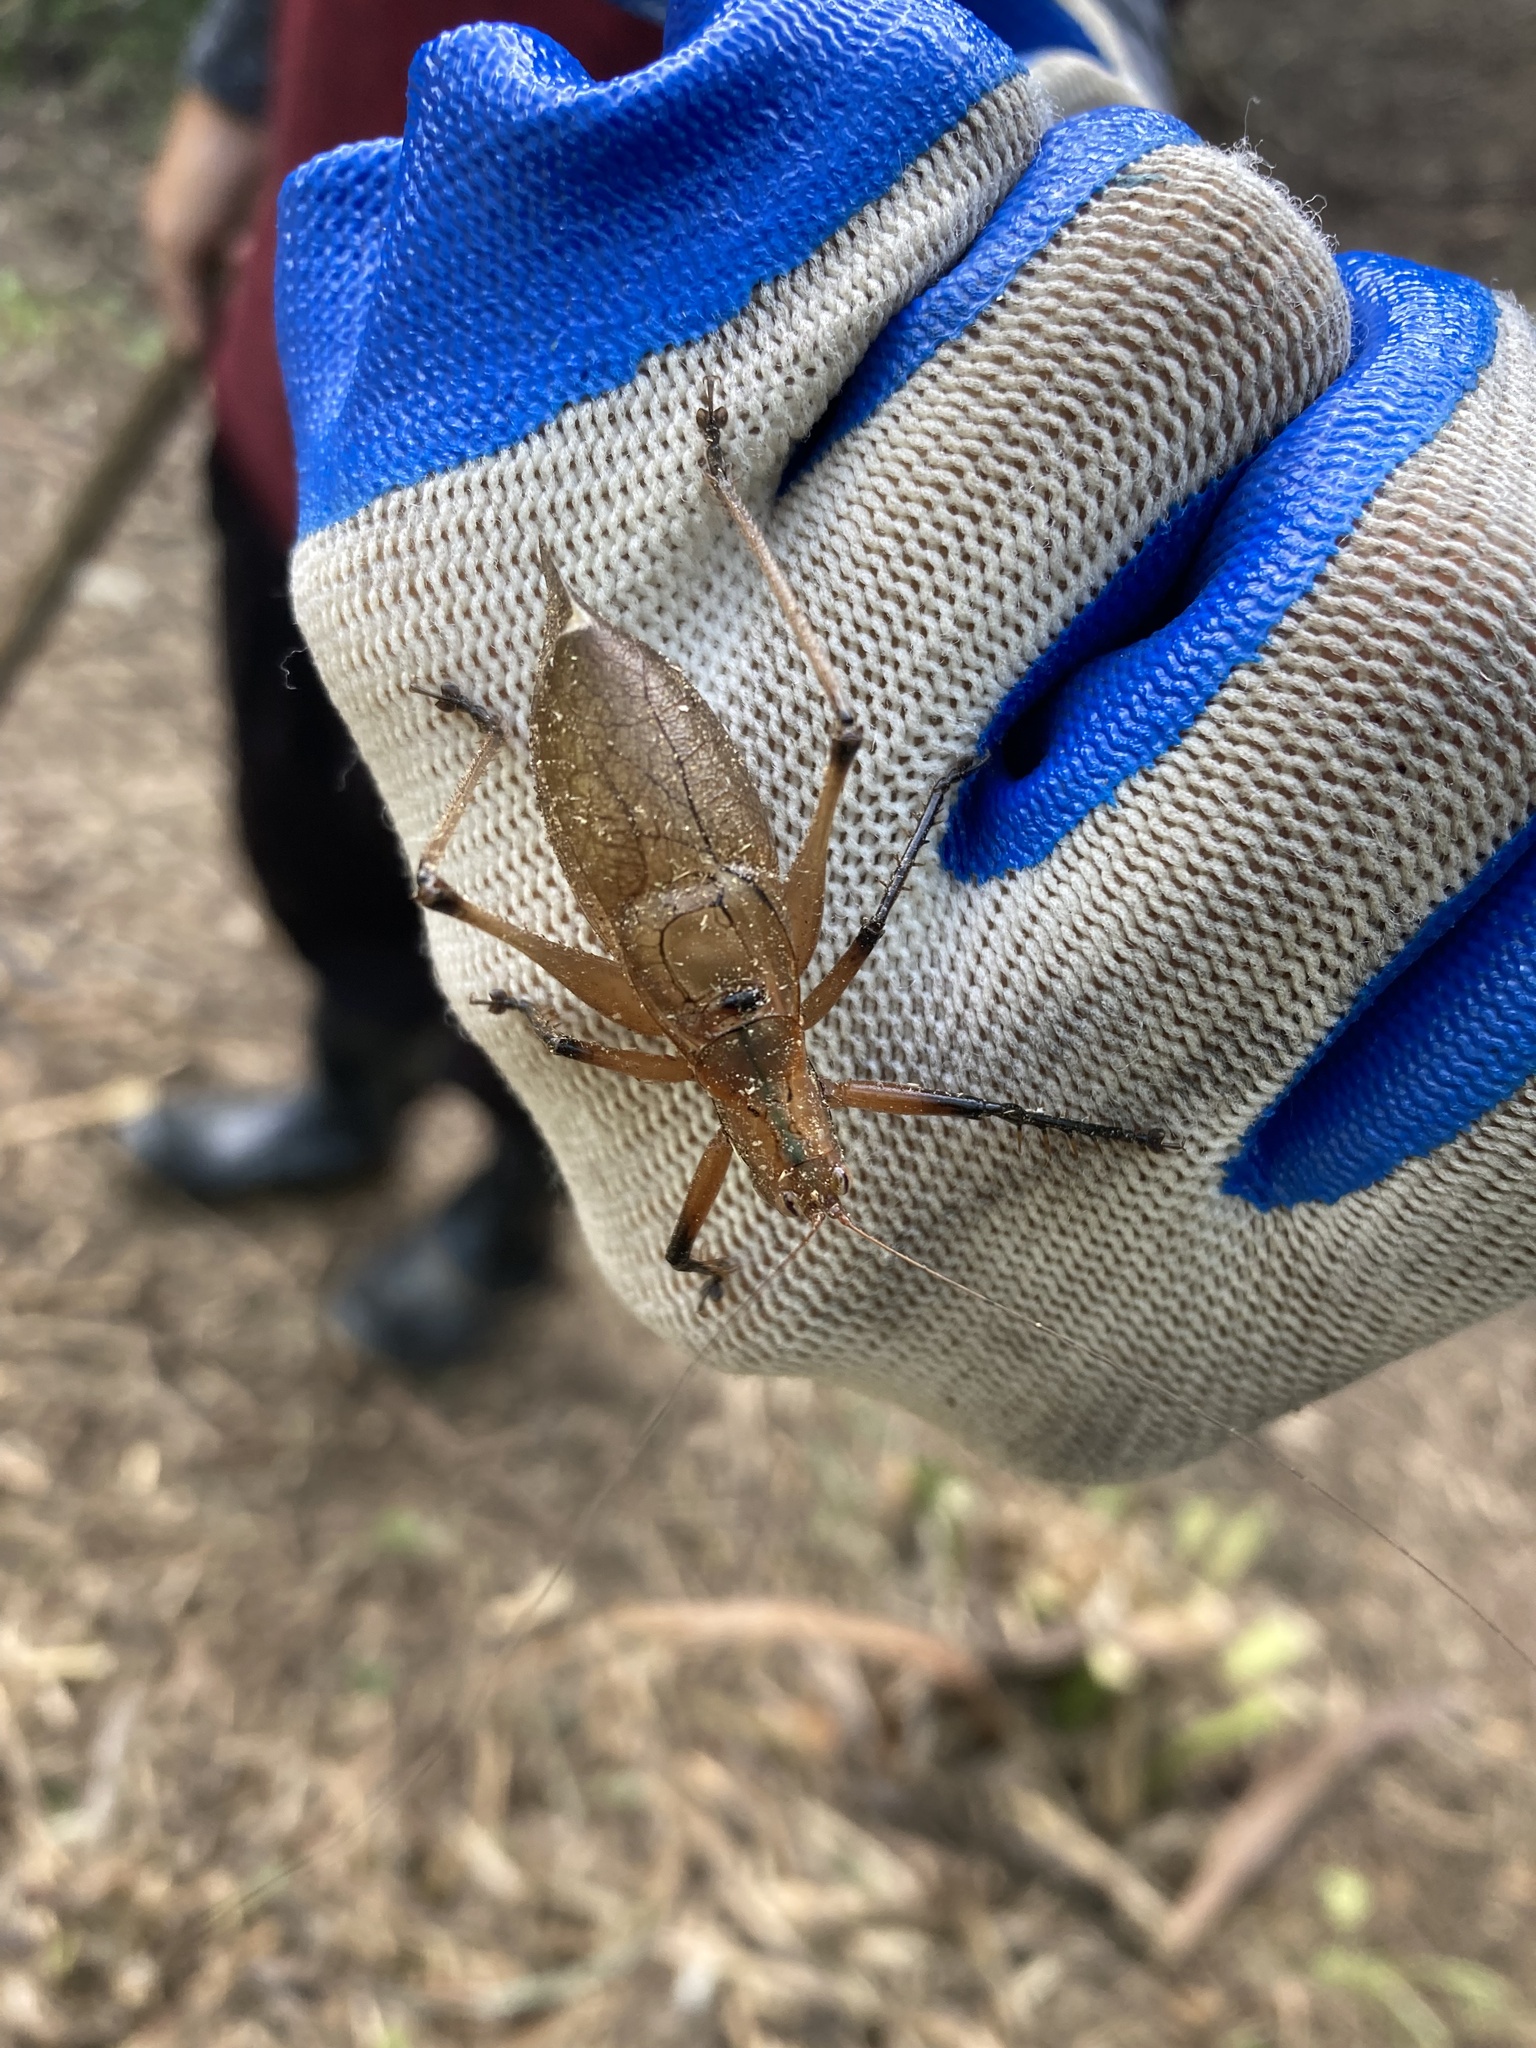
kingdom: Animalia
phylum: Arthropoda
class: Insecta
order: Orthoptera
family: Tettigoniidae
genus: Hexacentrus
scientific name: Hexacentrus fuscipes
